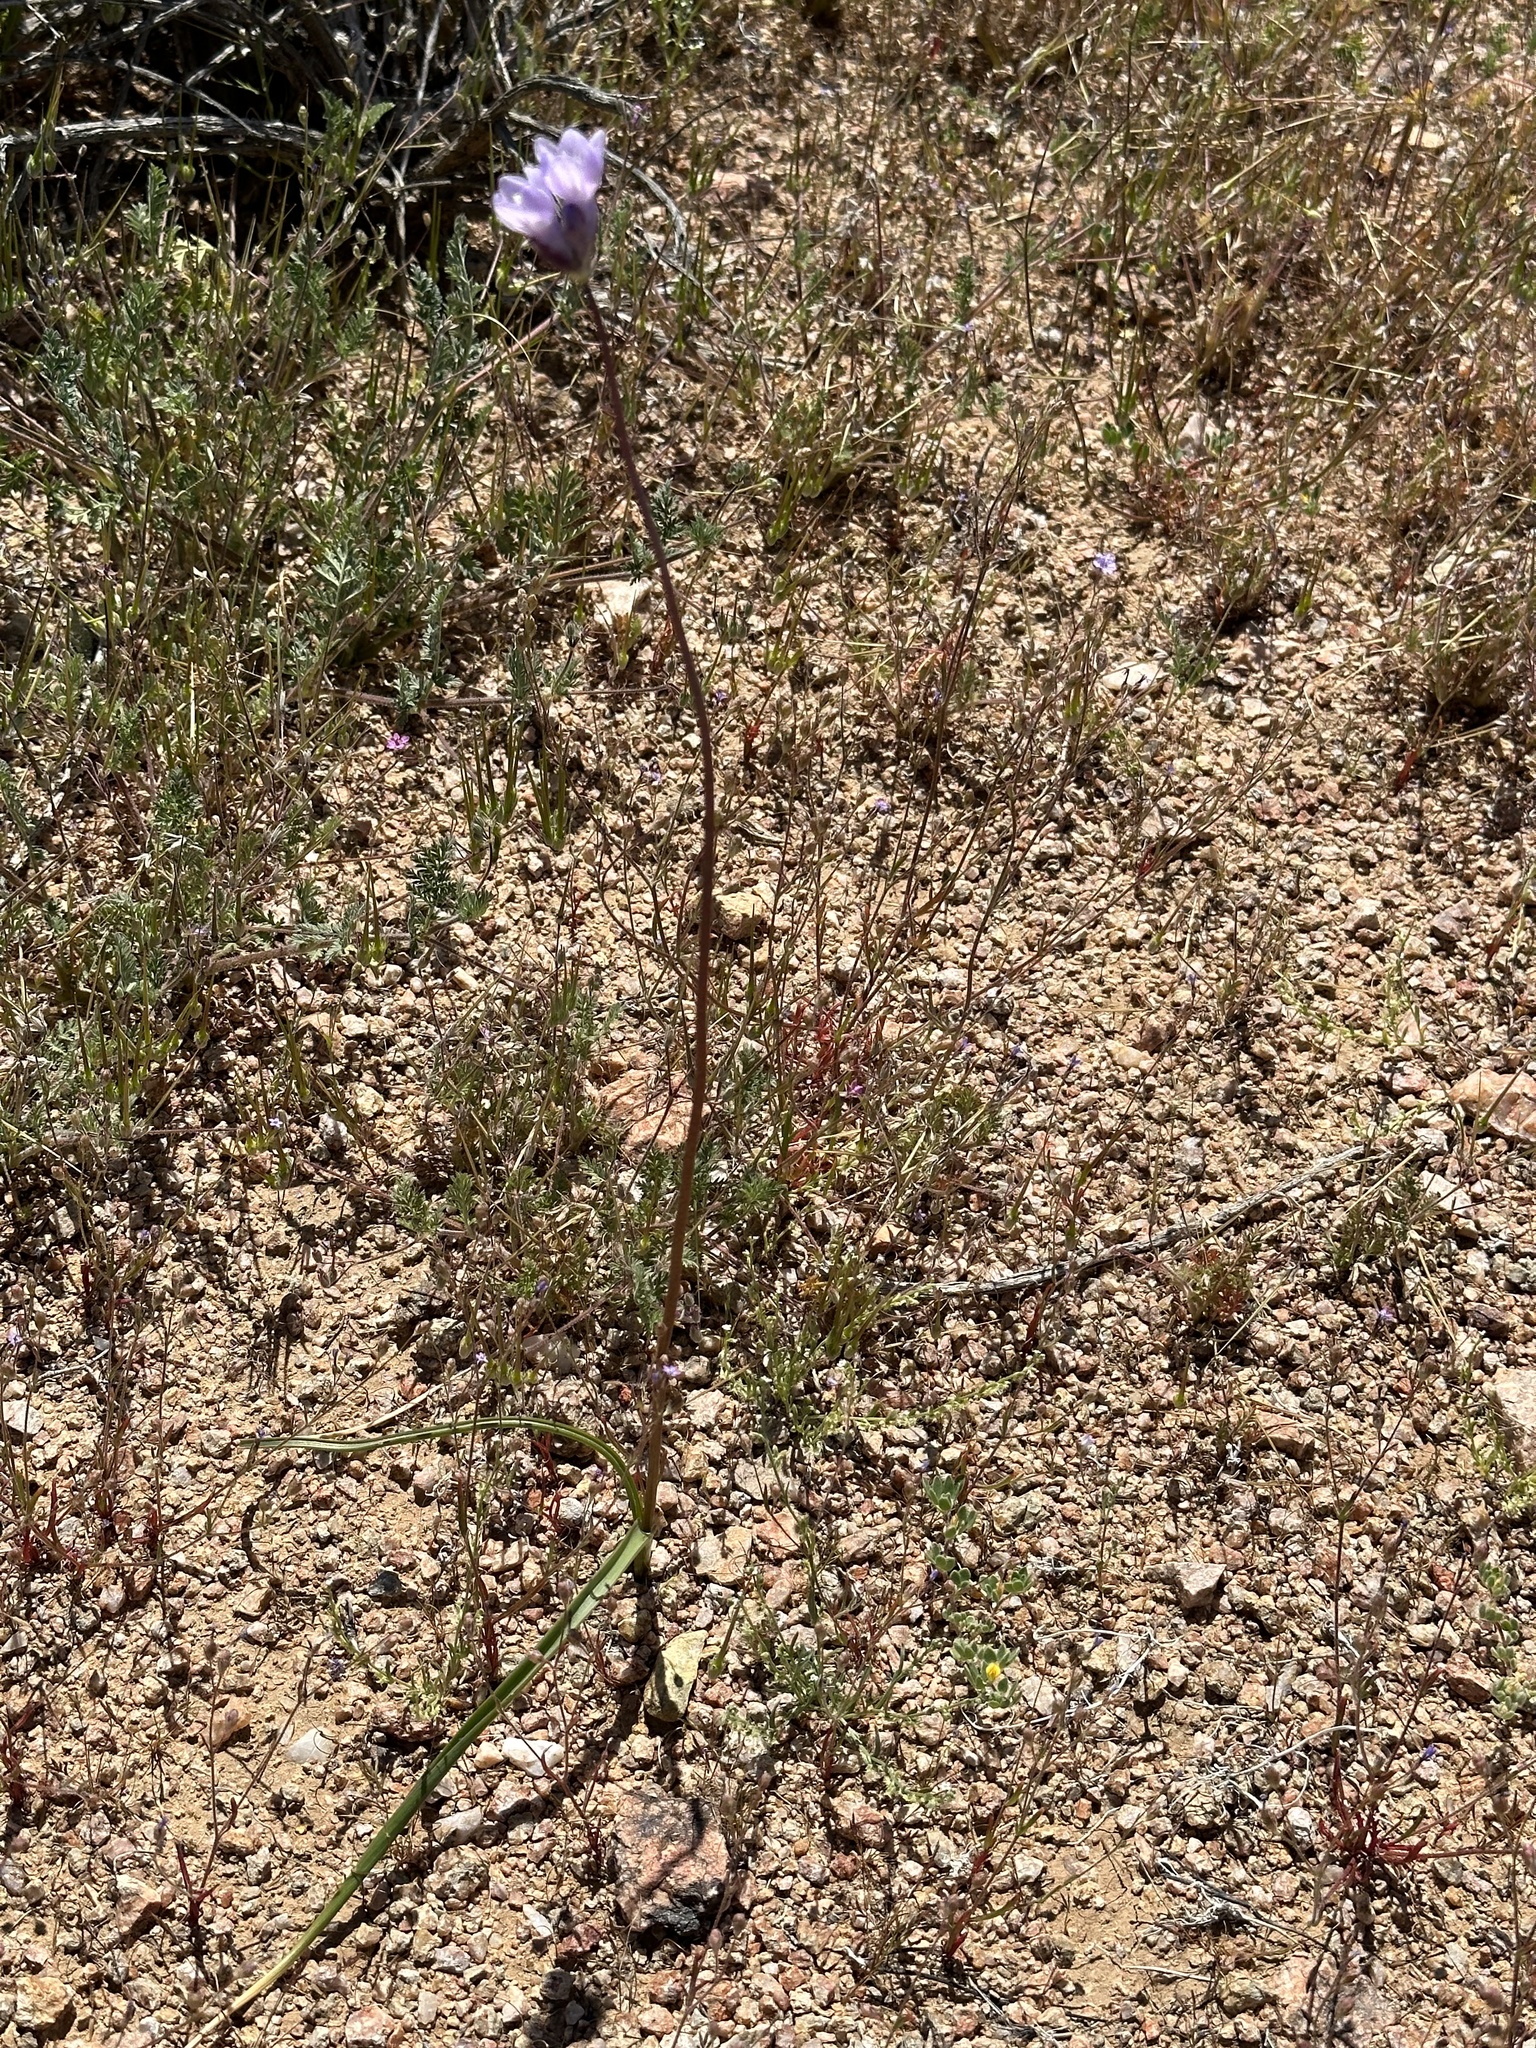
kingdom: Plantae
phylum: Tracheophyta
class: Liliopsida
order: Asparagales
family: Asparagaceae
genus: Dipterostemon
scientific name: Dipterostemon capitatus
